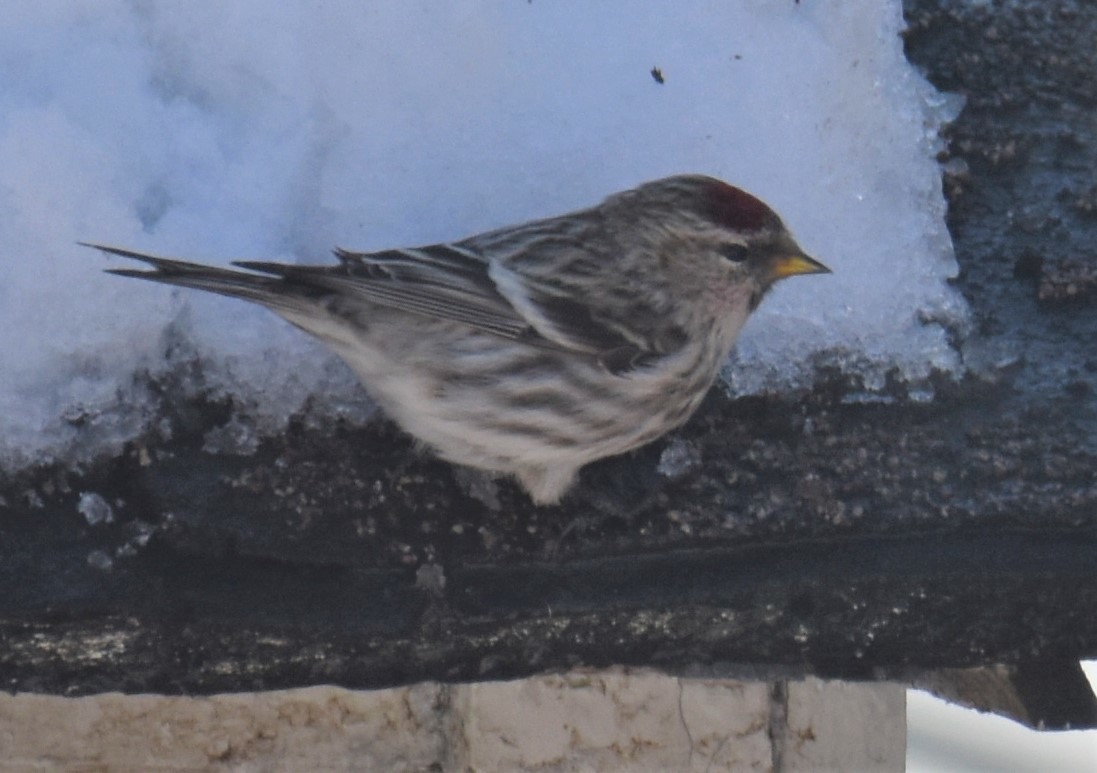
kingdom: Animalia
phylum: Chordata
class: Aves
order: Passeriformes
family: Fringillidae
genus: Acanthis
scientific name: Acanthis flammea
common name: Common redpoll
